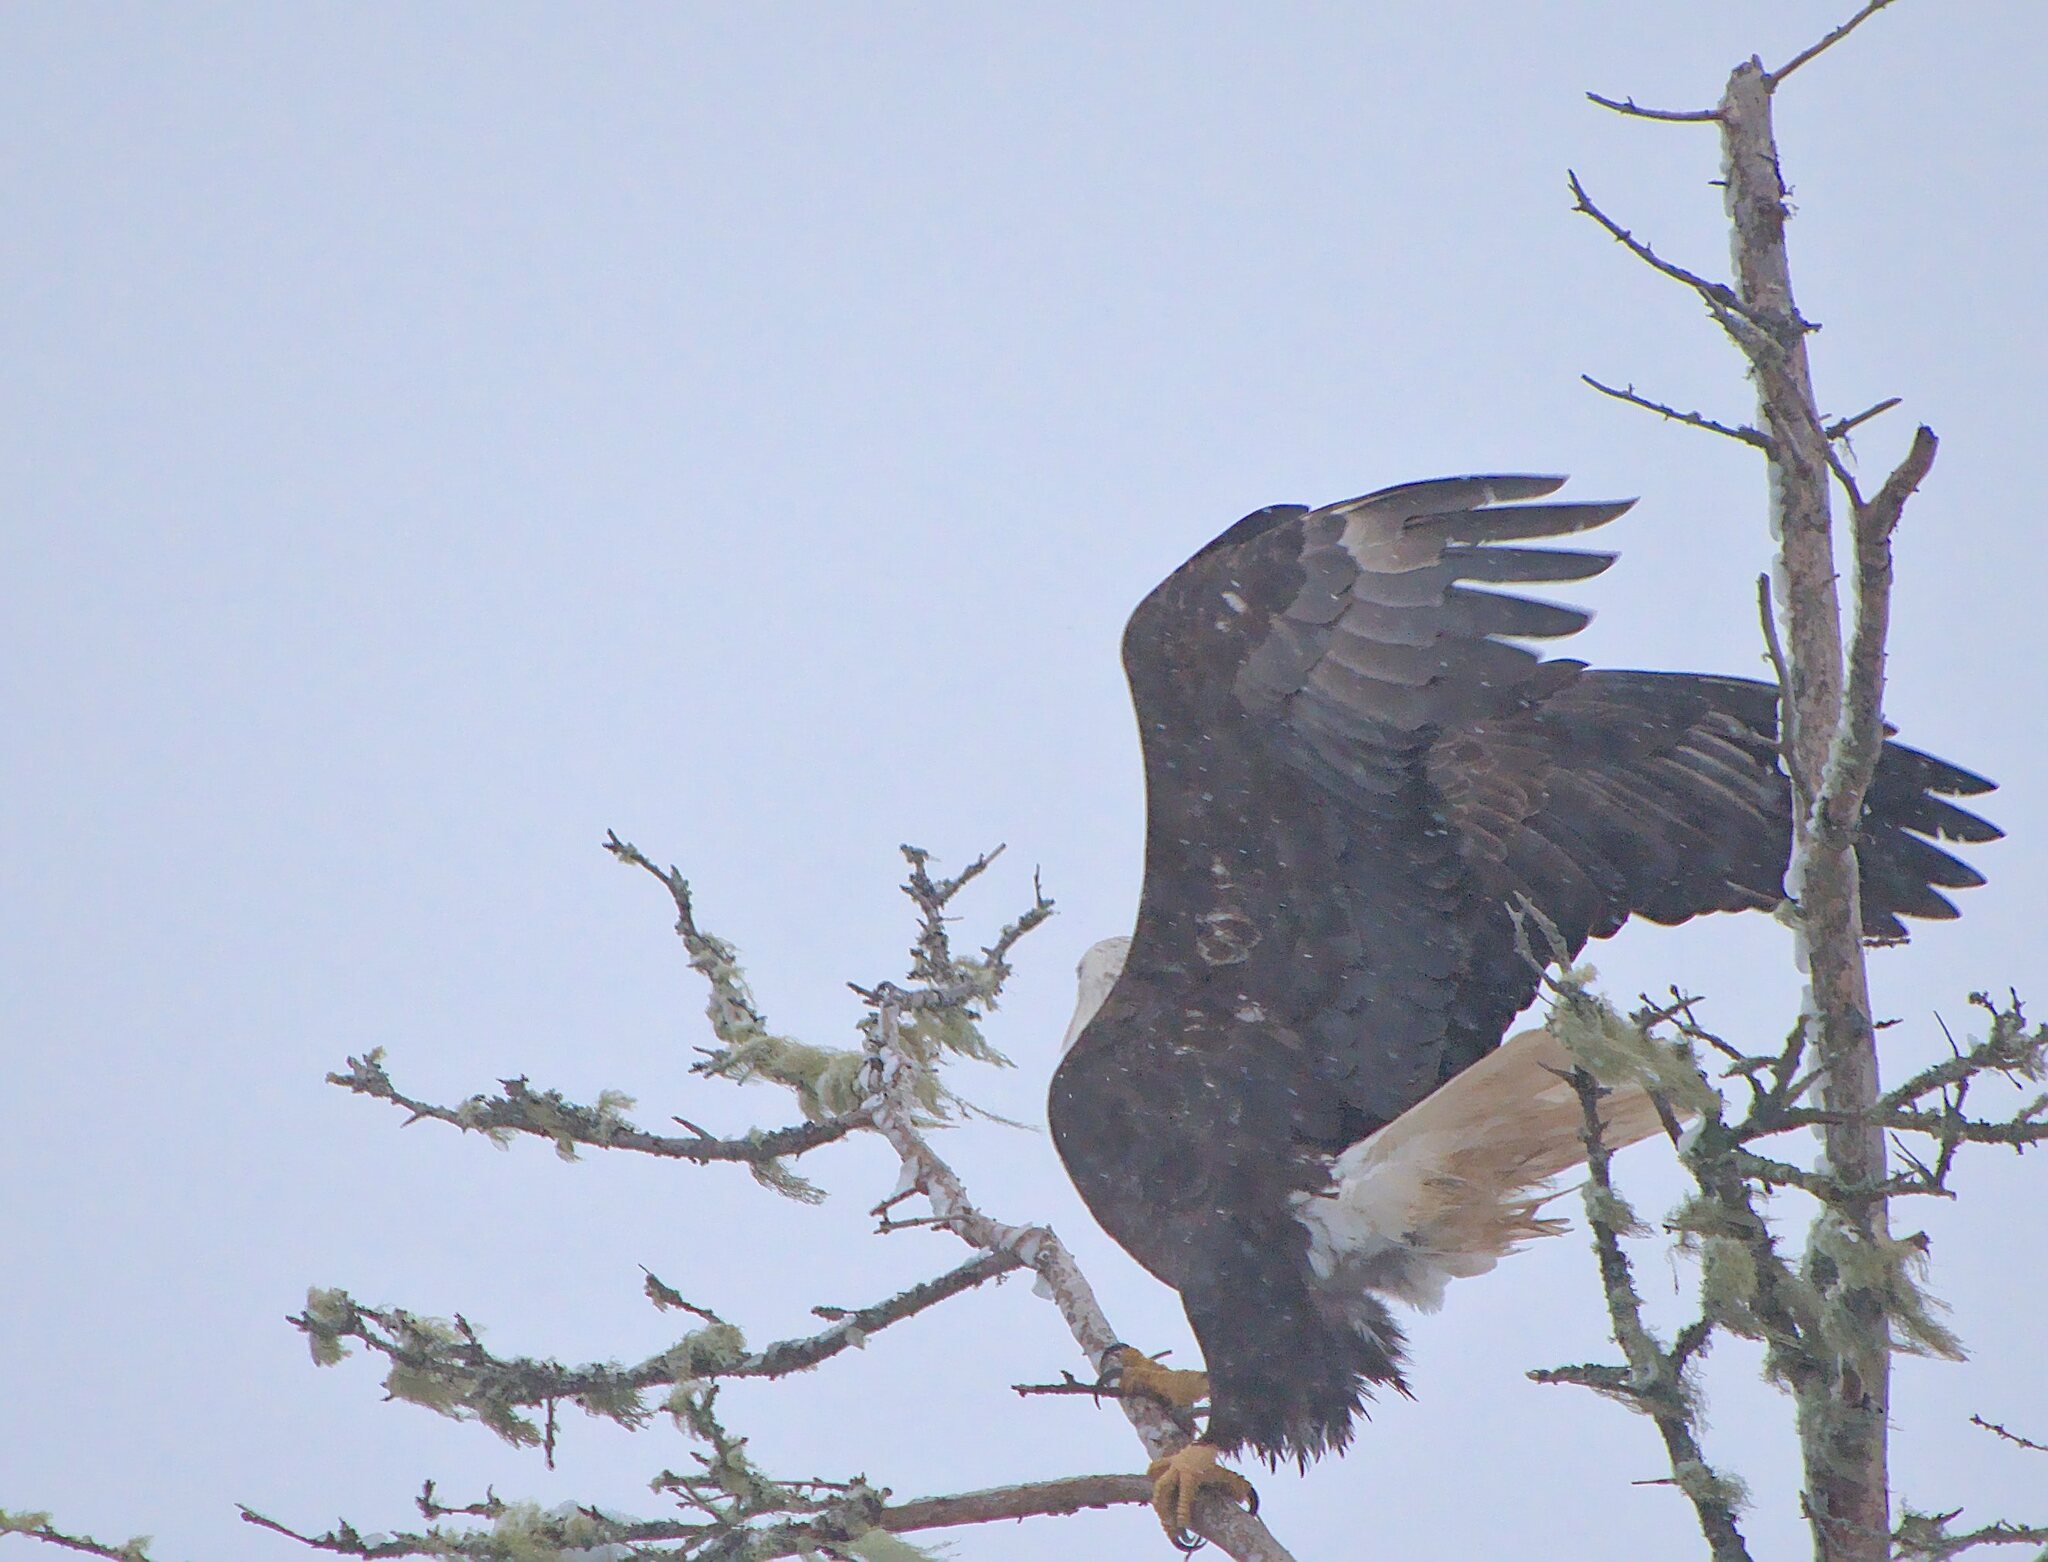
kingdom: Animalia
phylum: Chordata
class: Aves
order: Accipitriformes
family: Accipitridae
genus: Haliaeetus
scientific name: Haliaeetus leucocephalus
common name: Bald eagle
